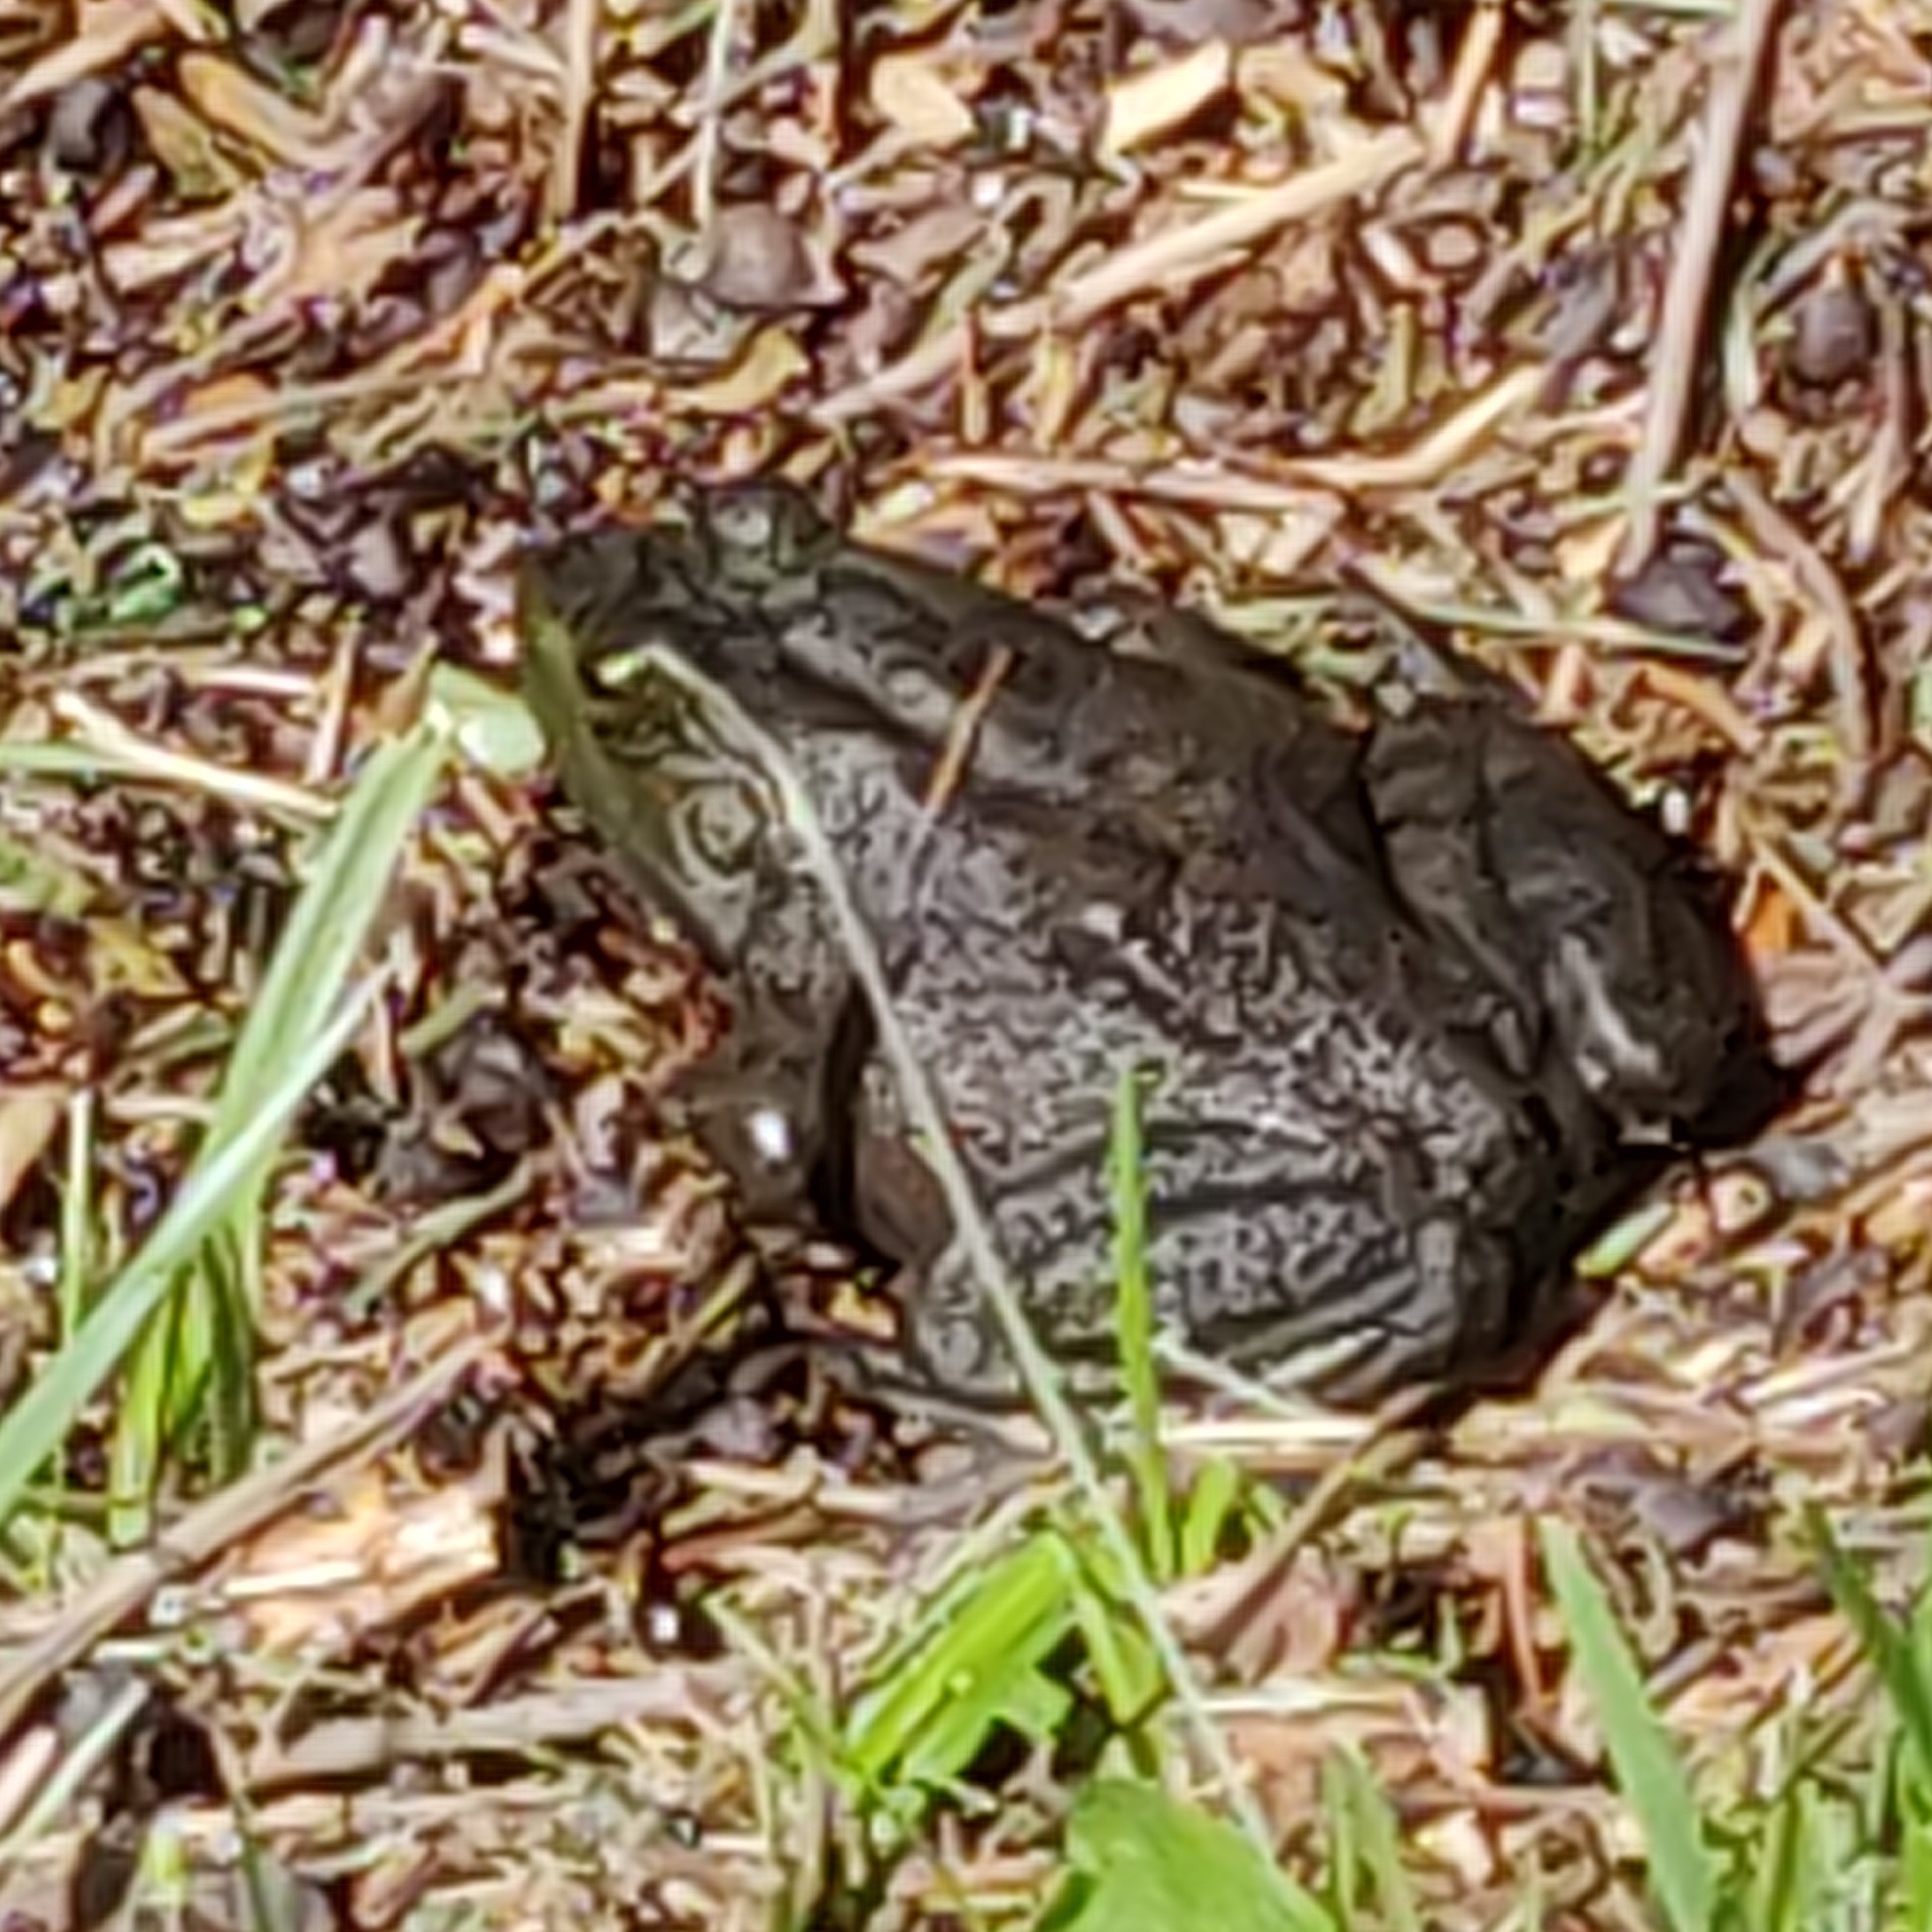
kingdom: Animalia
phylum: Chordata
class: Amphibia
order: Anura
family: Ranidae
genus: Lithobates
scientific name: Lithobates catesbeianus
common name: American bullfrog
